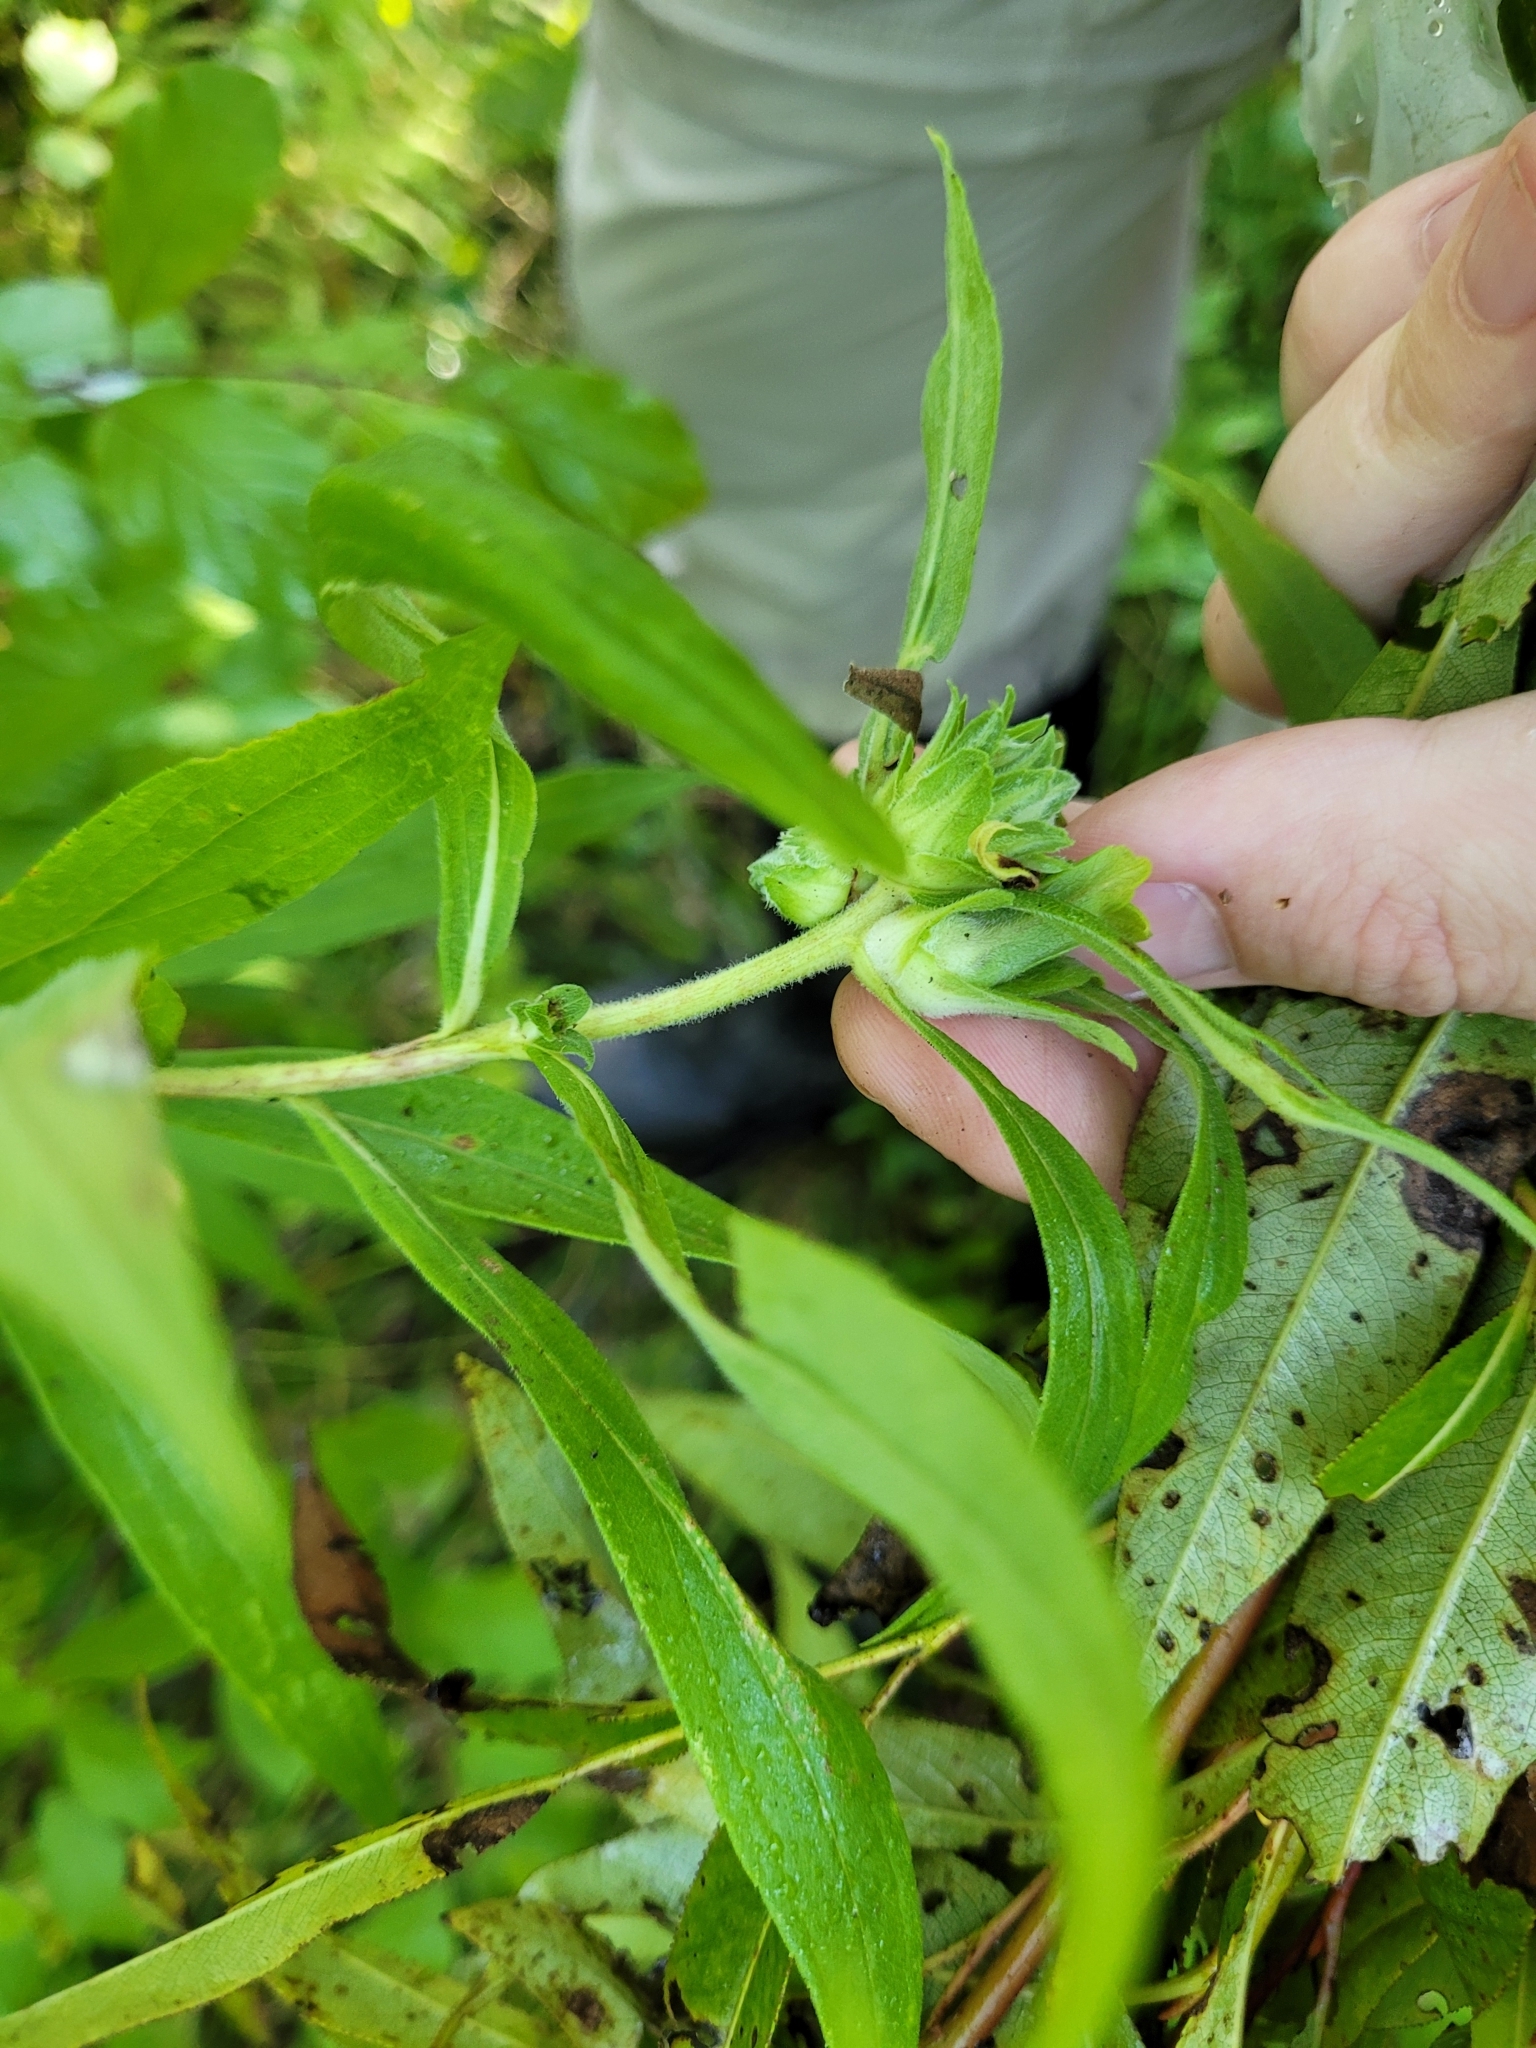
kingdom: Animalia
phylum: Arthropoda
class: Insecta
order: Diptera
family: Tephritidae
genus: Procecidochares
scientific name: Procecidochares atra
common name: Goldenrod brussels sprout gall fly
